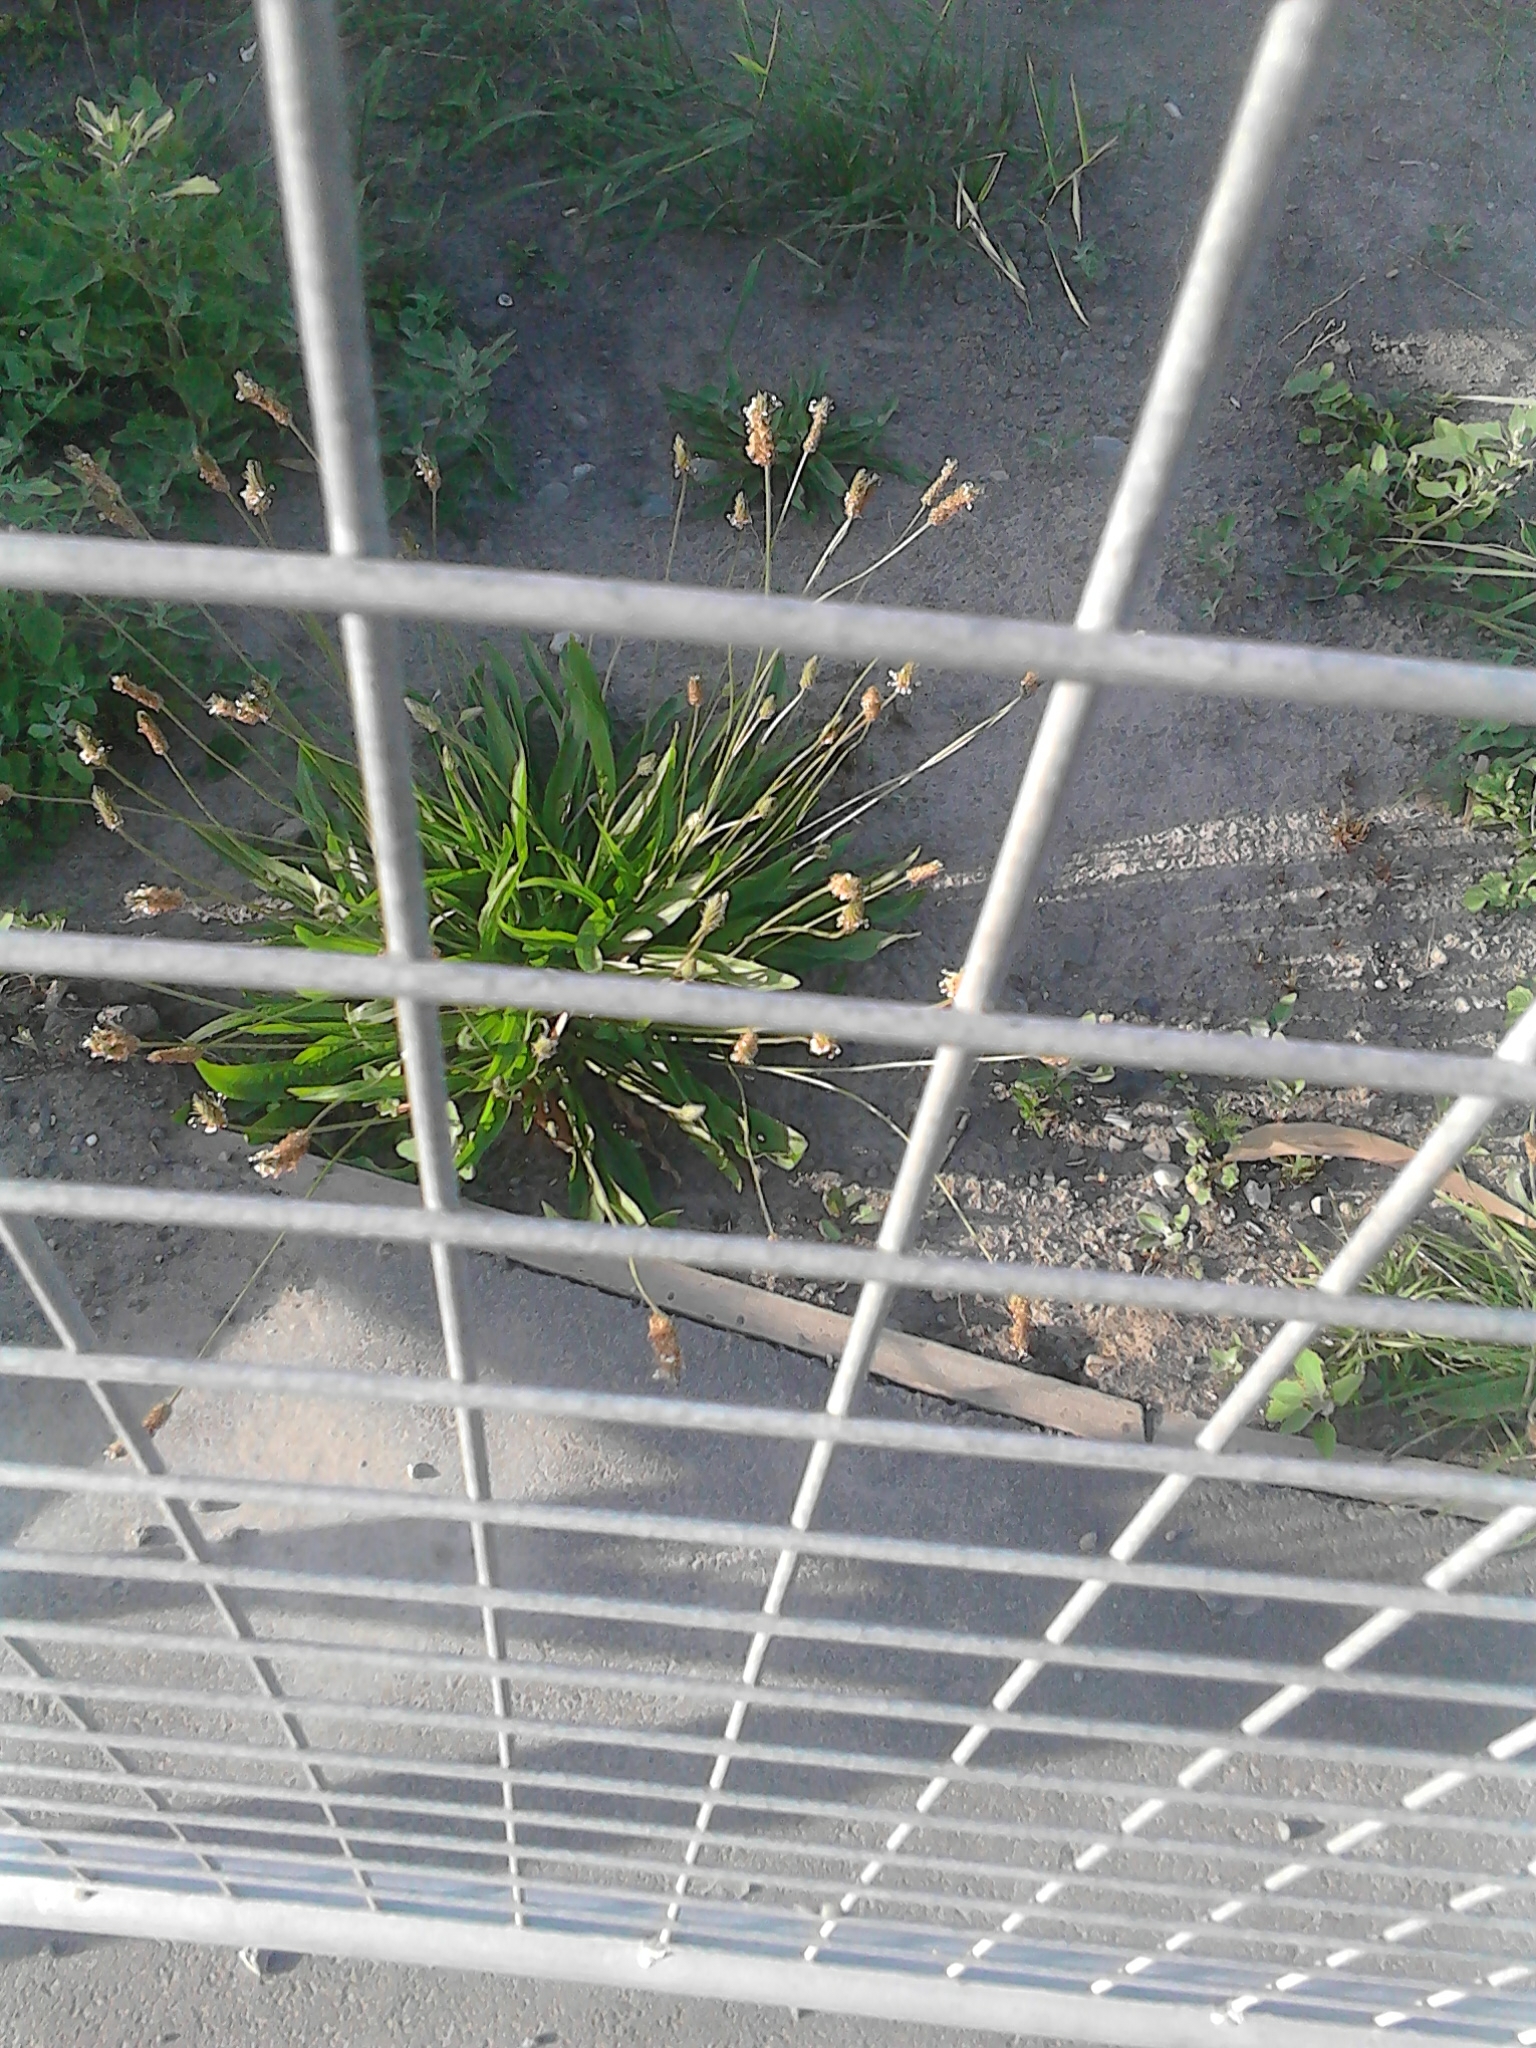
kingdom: Plantae
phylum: Tracheophyta
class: Magnoliopsida
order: Lamiales
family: Plantaginaceae
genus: Plantago
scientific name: Plantago lanceolata
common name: Ribwort plantain
